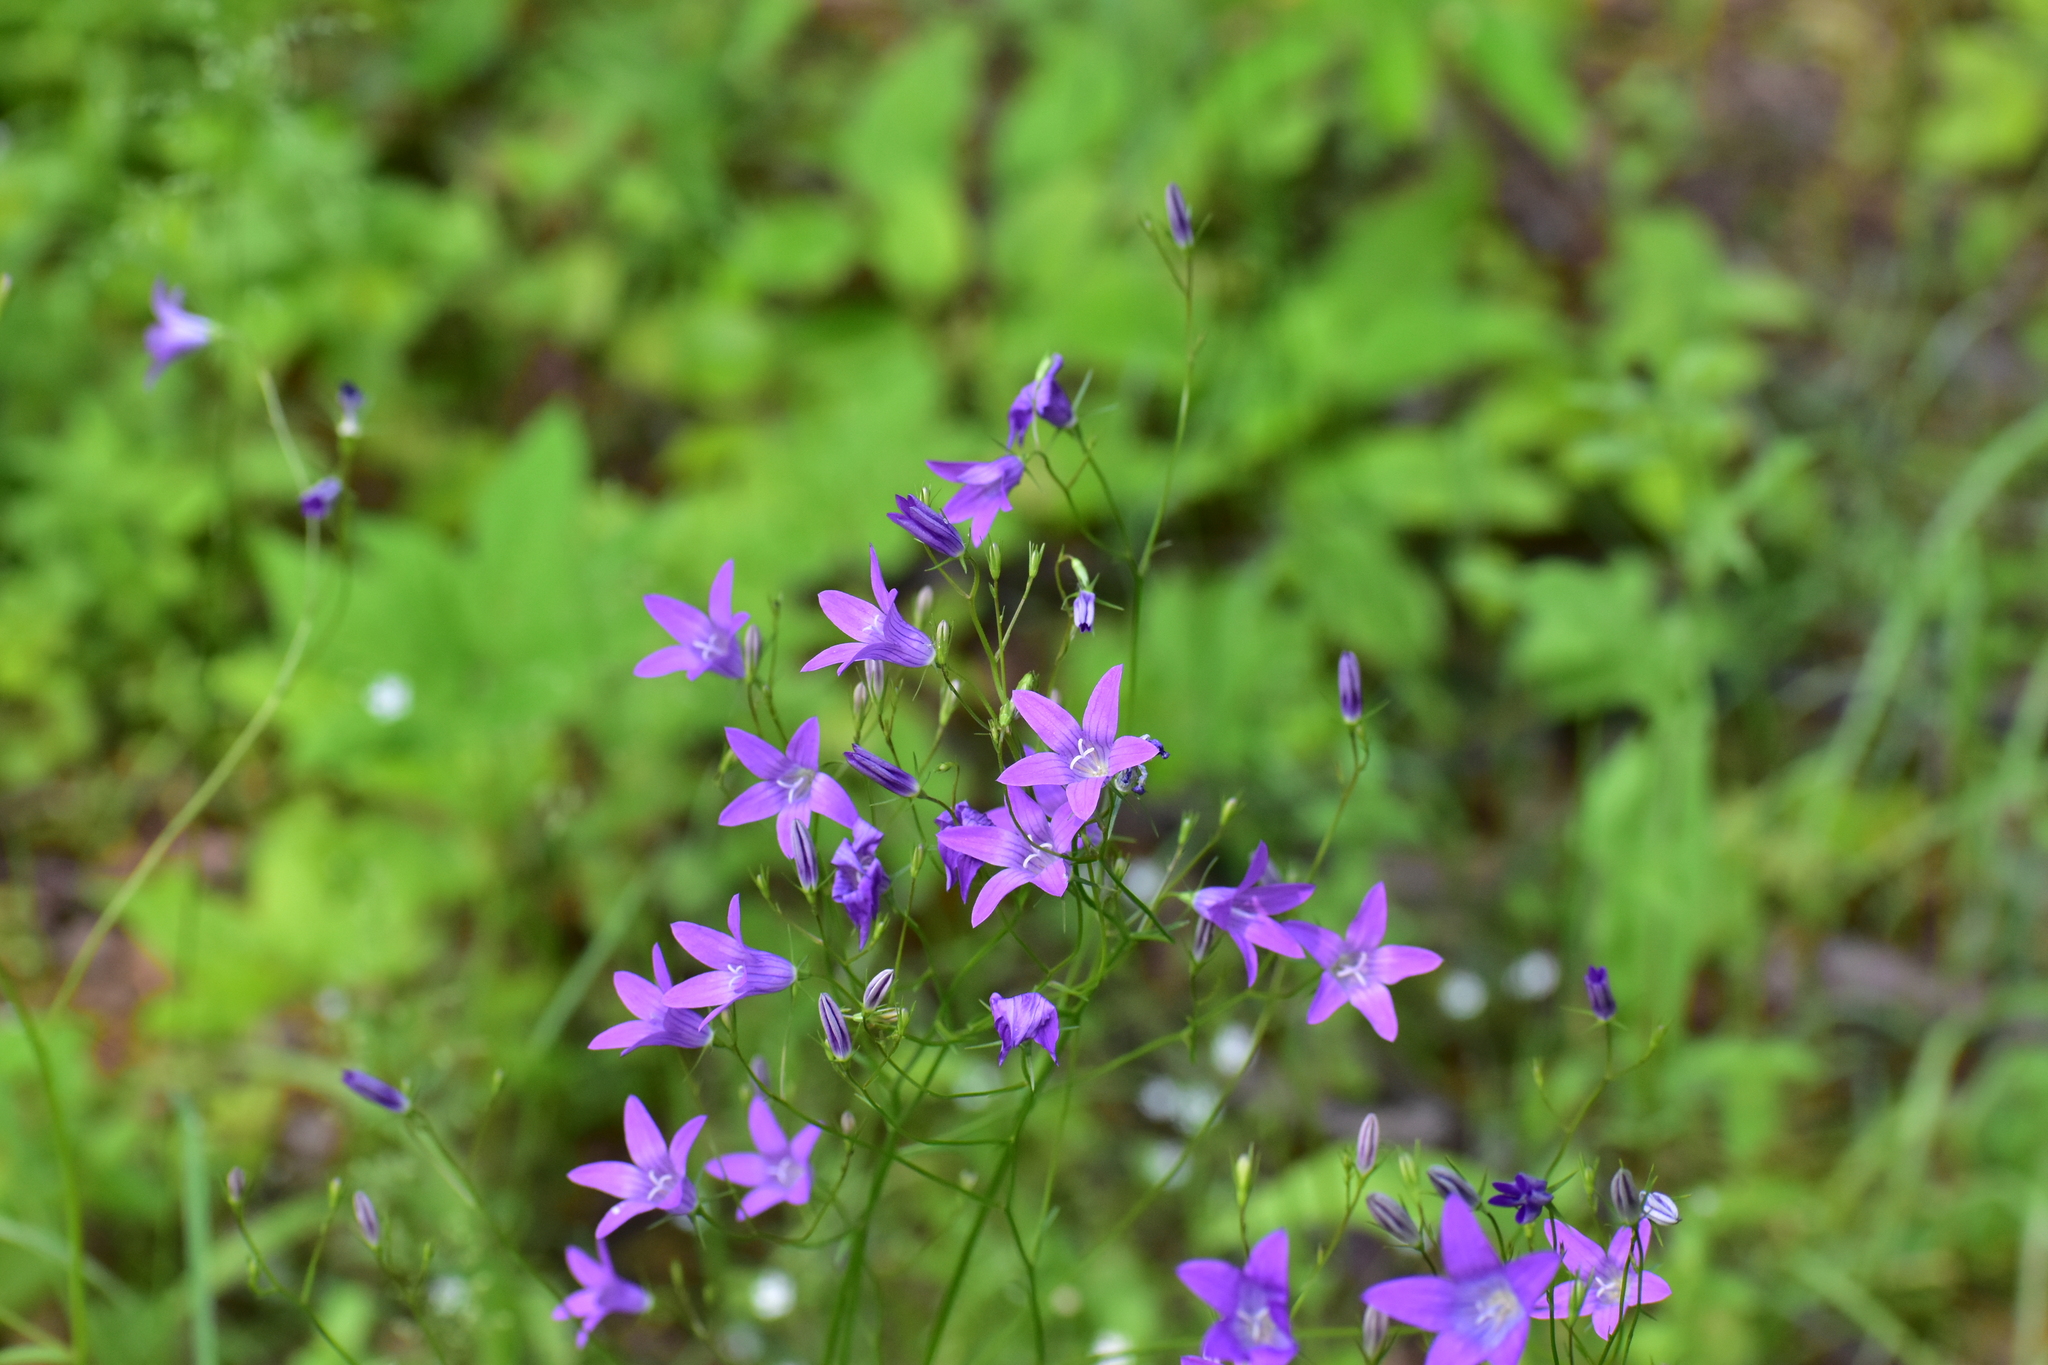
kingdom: Plantae
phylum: Tracheophyta
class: Magnoliopsida
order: Asterales
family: Campanulaceae
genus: Campanula
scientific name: Campanula patula
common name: Spreading bellflower
